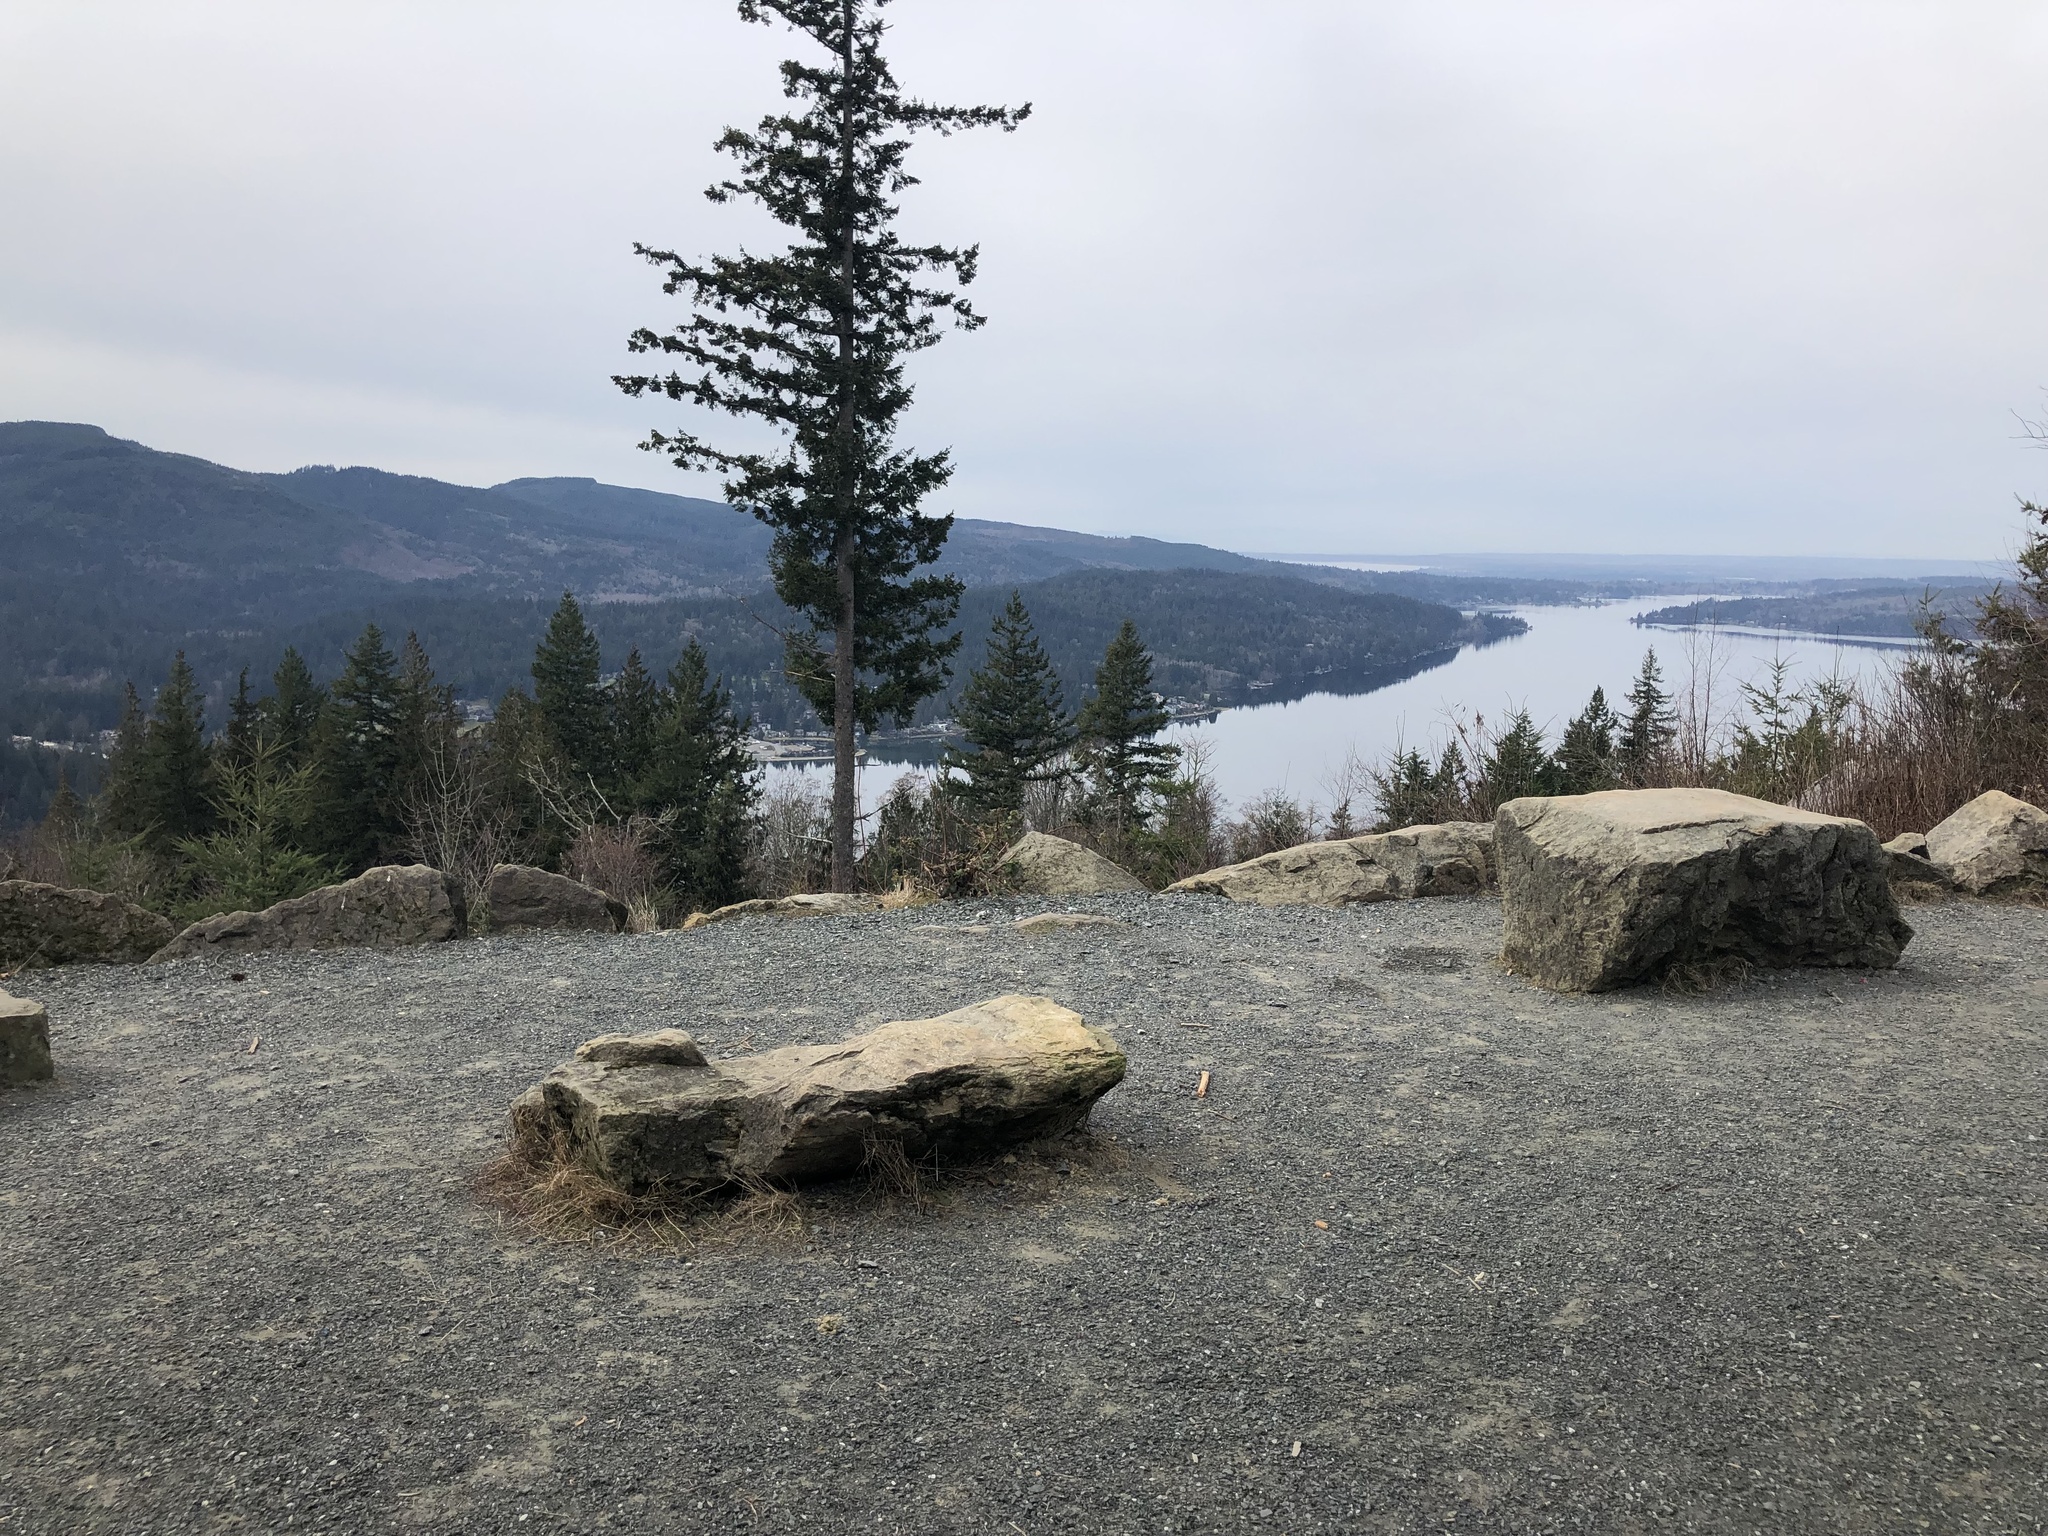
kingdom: Plantae
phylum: Tracheophyta
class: Pinopsida
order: Pinales
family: Pinaceae
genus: Pseudotsuga
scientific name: Pseudotsuga menziesii
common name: Douglas fir
